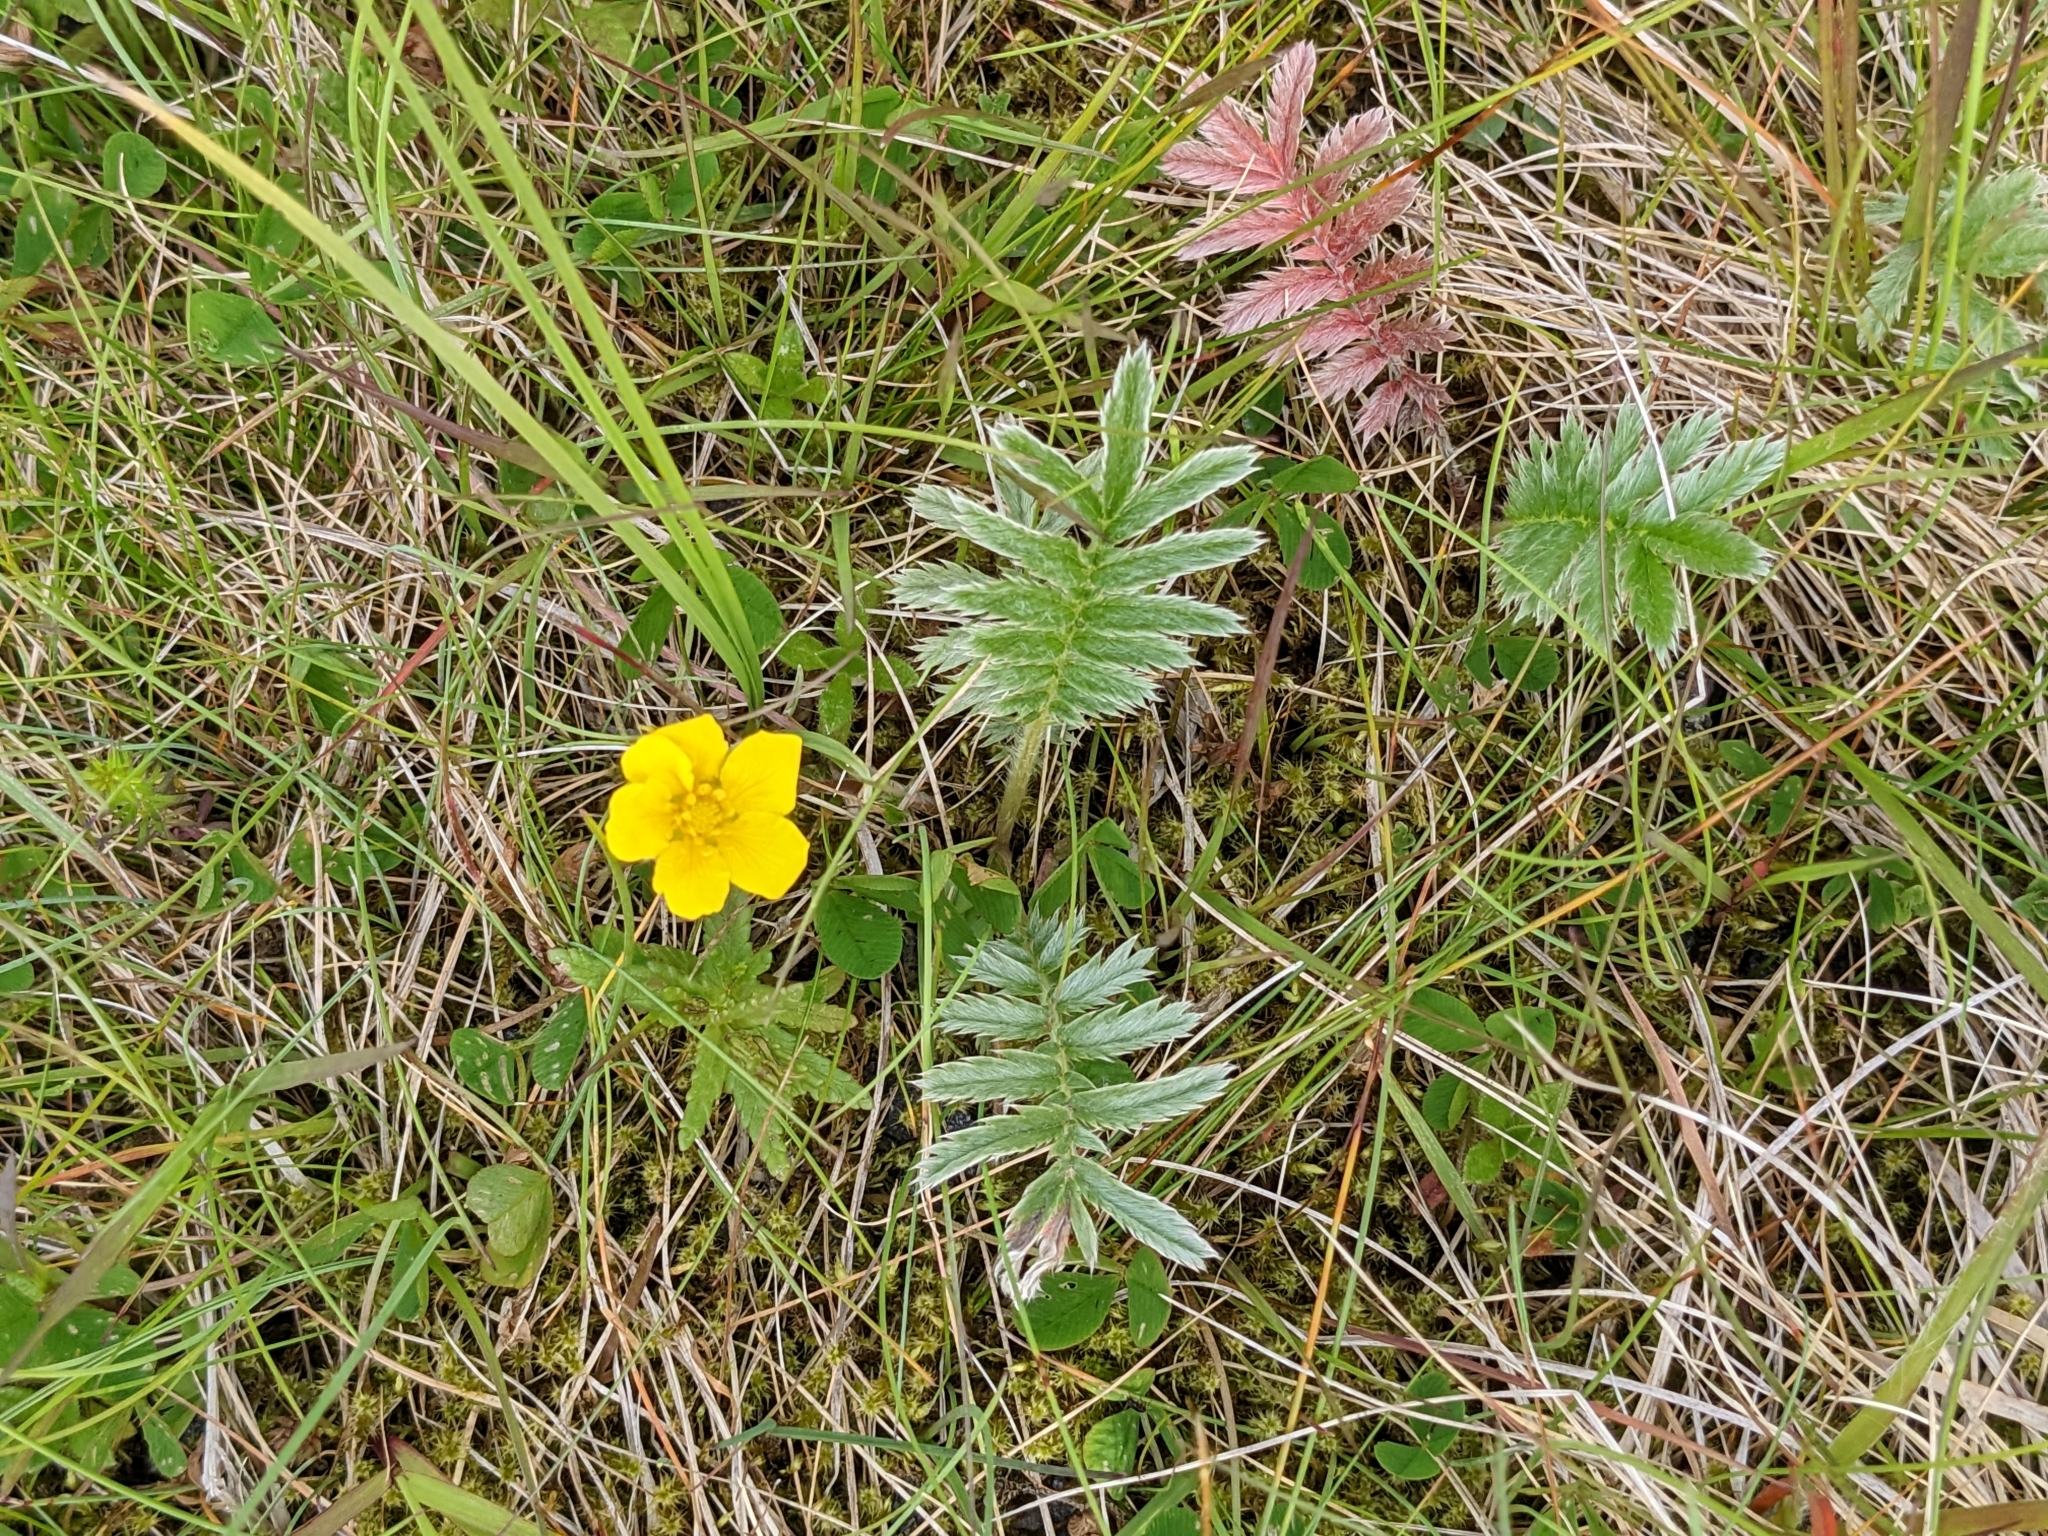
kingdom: Plantae
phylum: Tracheophyta
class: Magnoliopsida
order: Rosales
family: Rosaceae
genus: Argentina
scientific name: Argentina anserina
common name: Common silverweed
